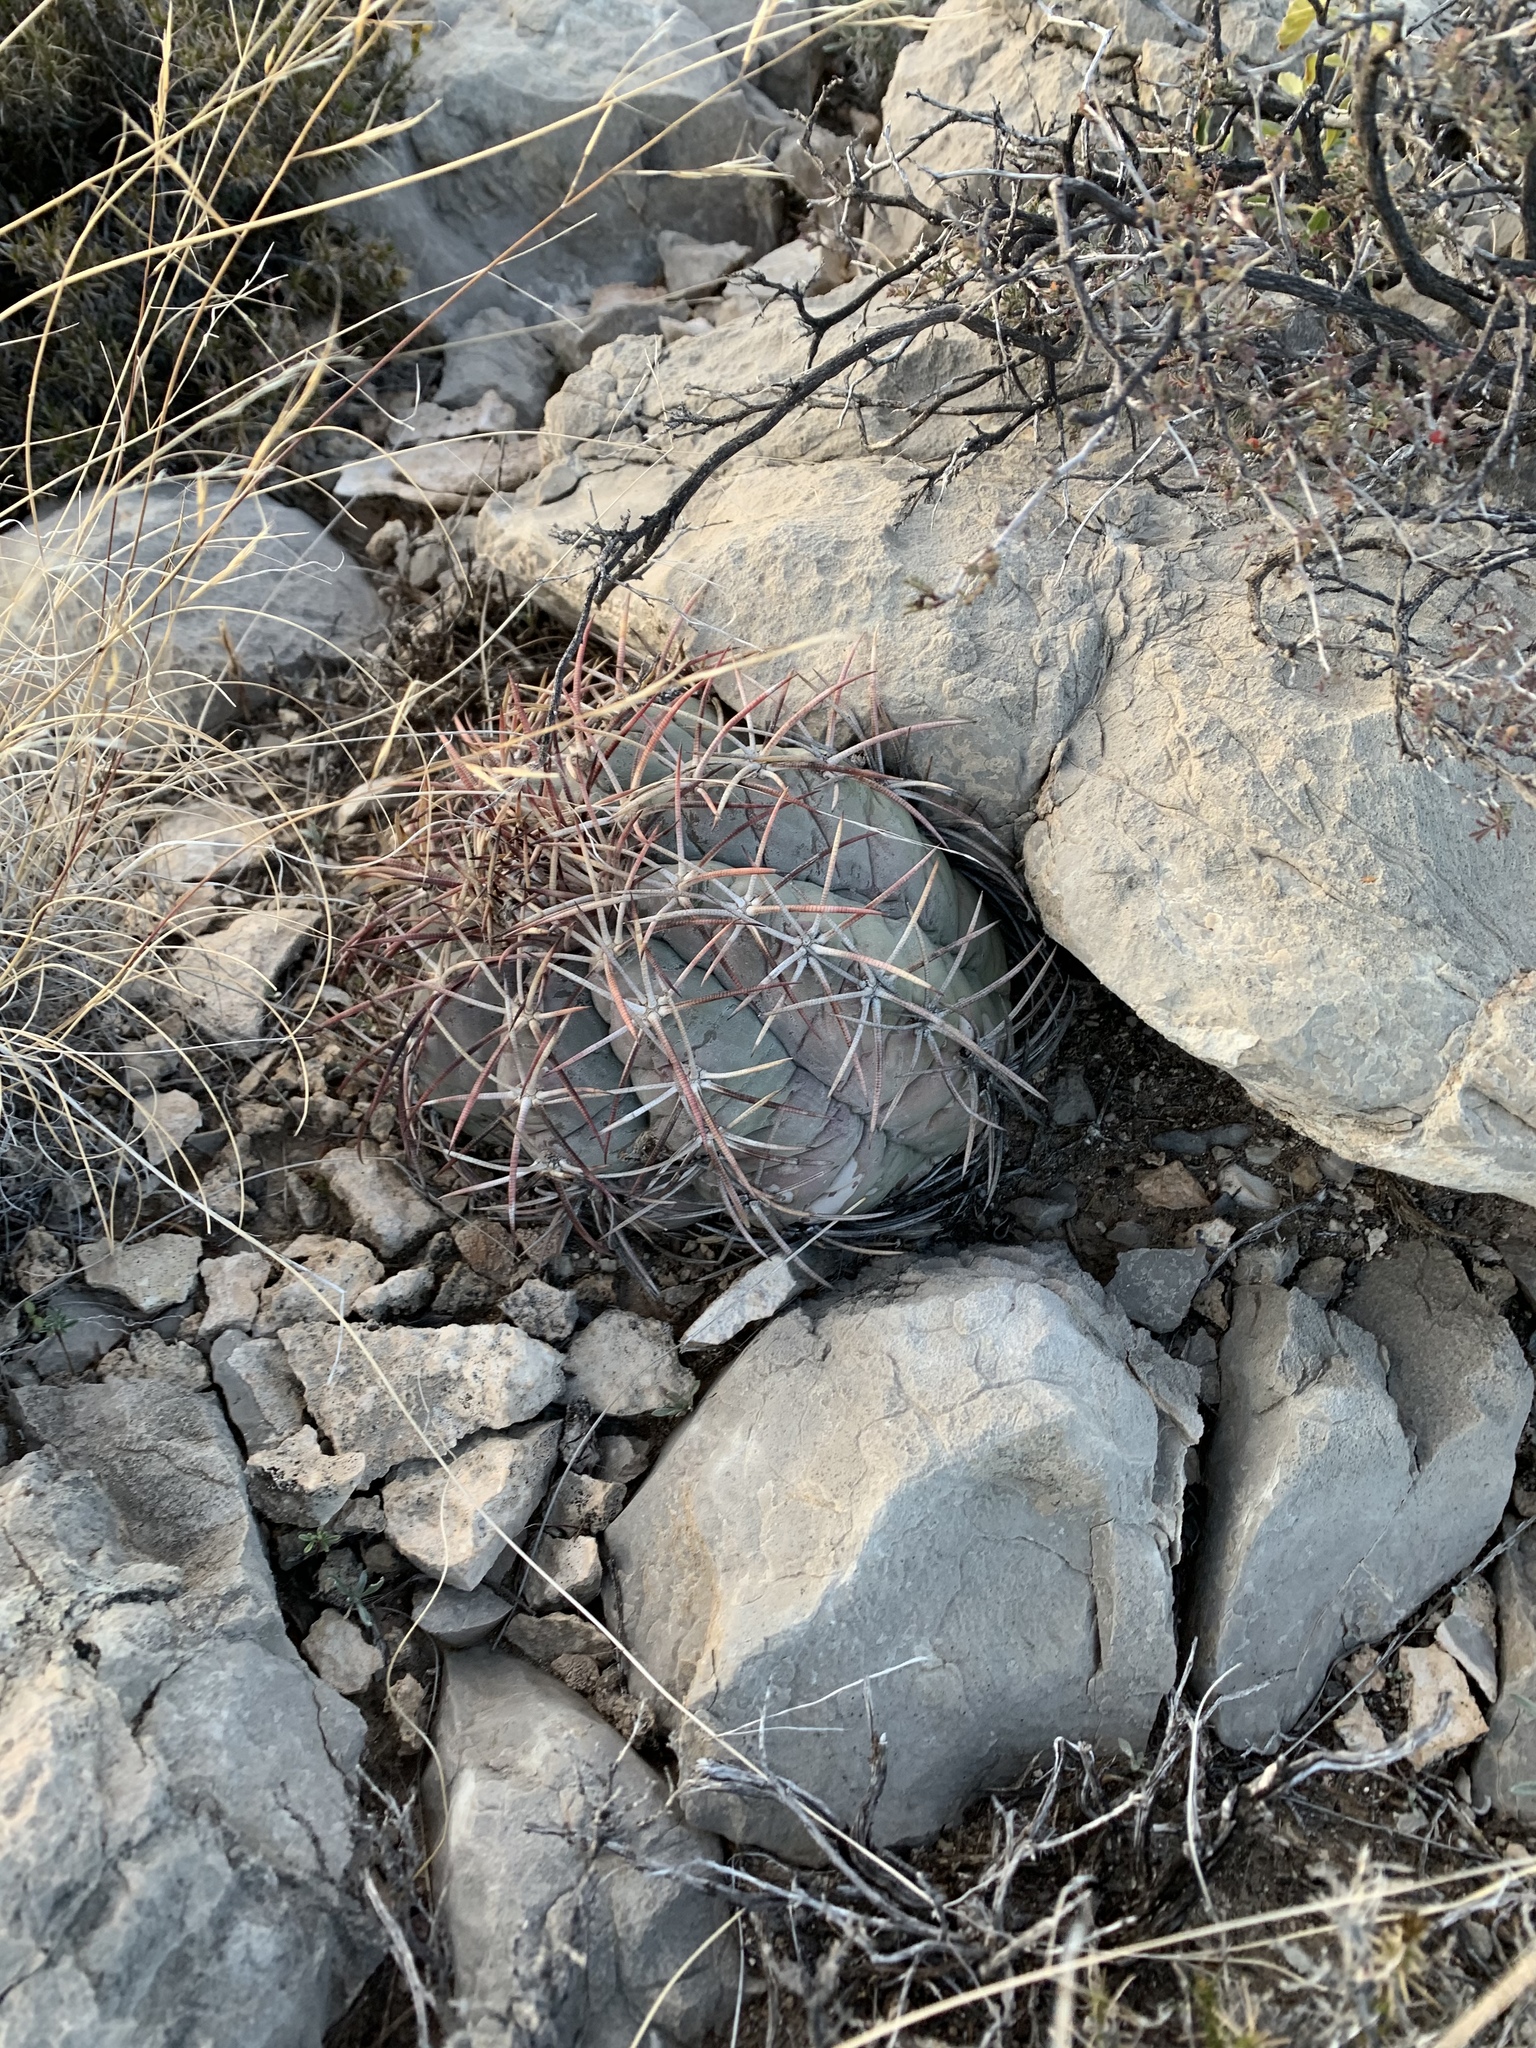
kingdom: Plantae
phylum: Tracheophyta
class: Magnoliopsida
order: Caryophyllales
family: Cactaceae
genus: Echinocactus
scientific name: Echinocactus horizonthalonius
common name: Devilshead
